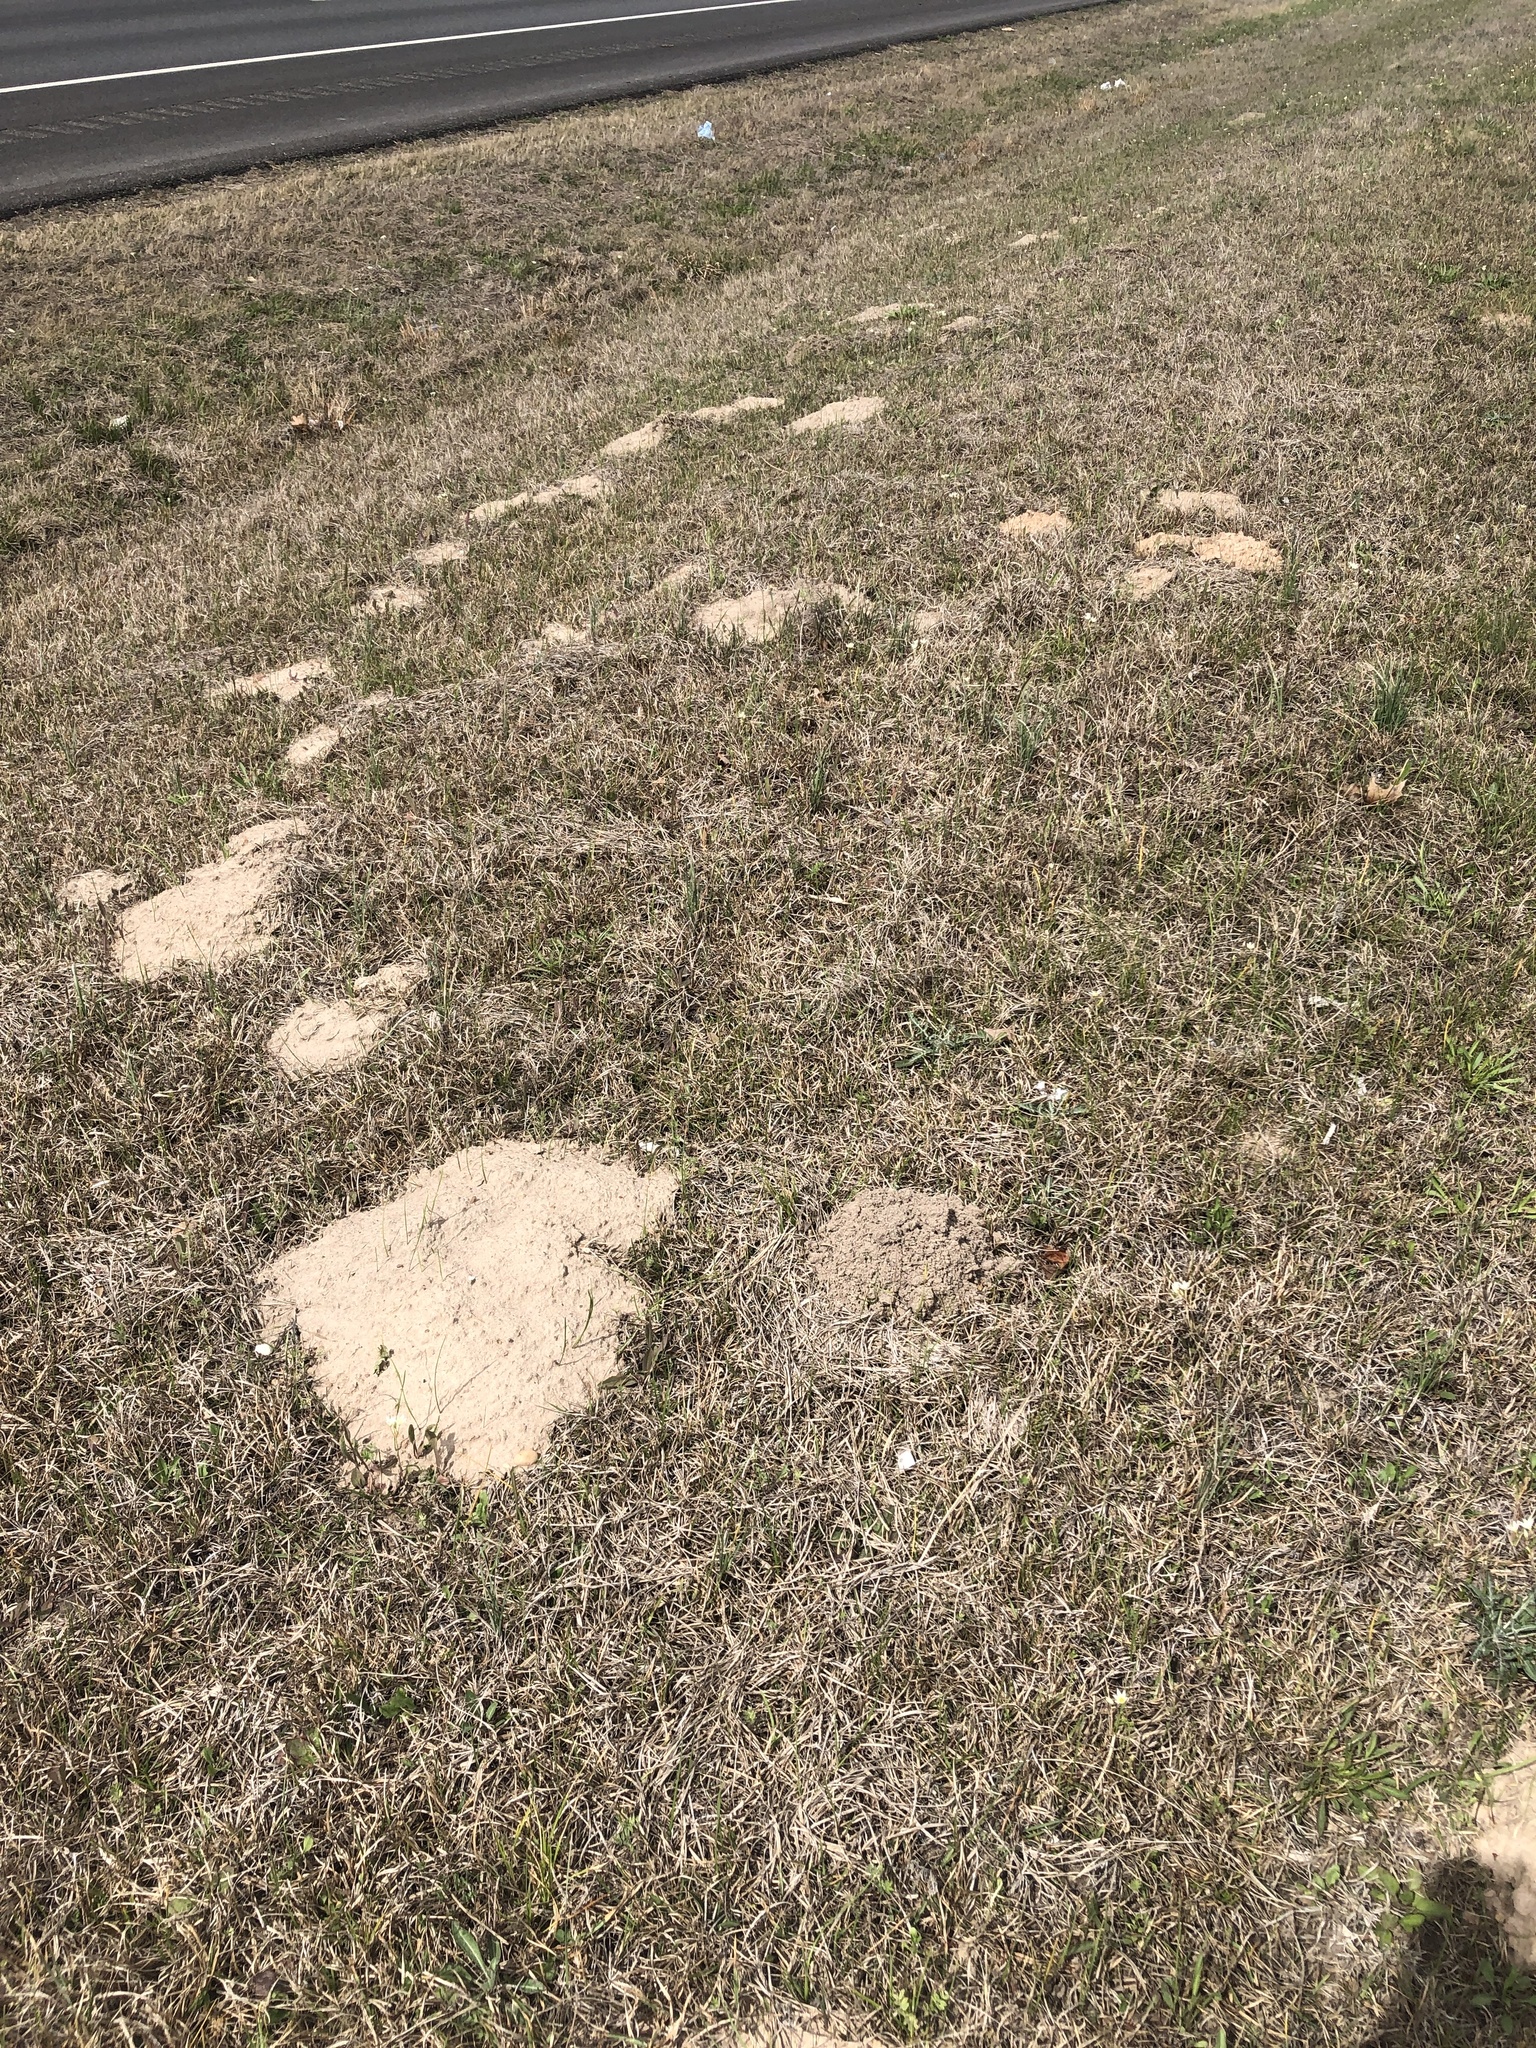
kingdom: Animalia
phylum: Chordata
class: Mammalia
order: Rodentia
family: Geomyidae
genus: Geomys
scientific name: Geomys breviceps
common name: Baird's pocket gopher
